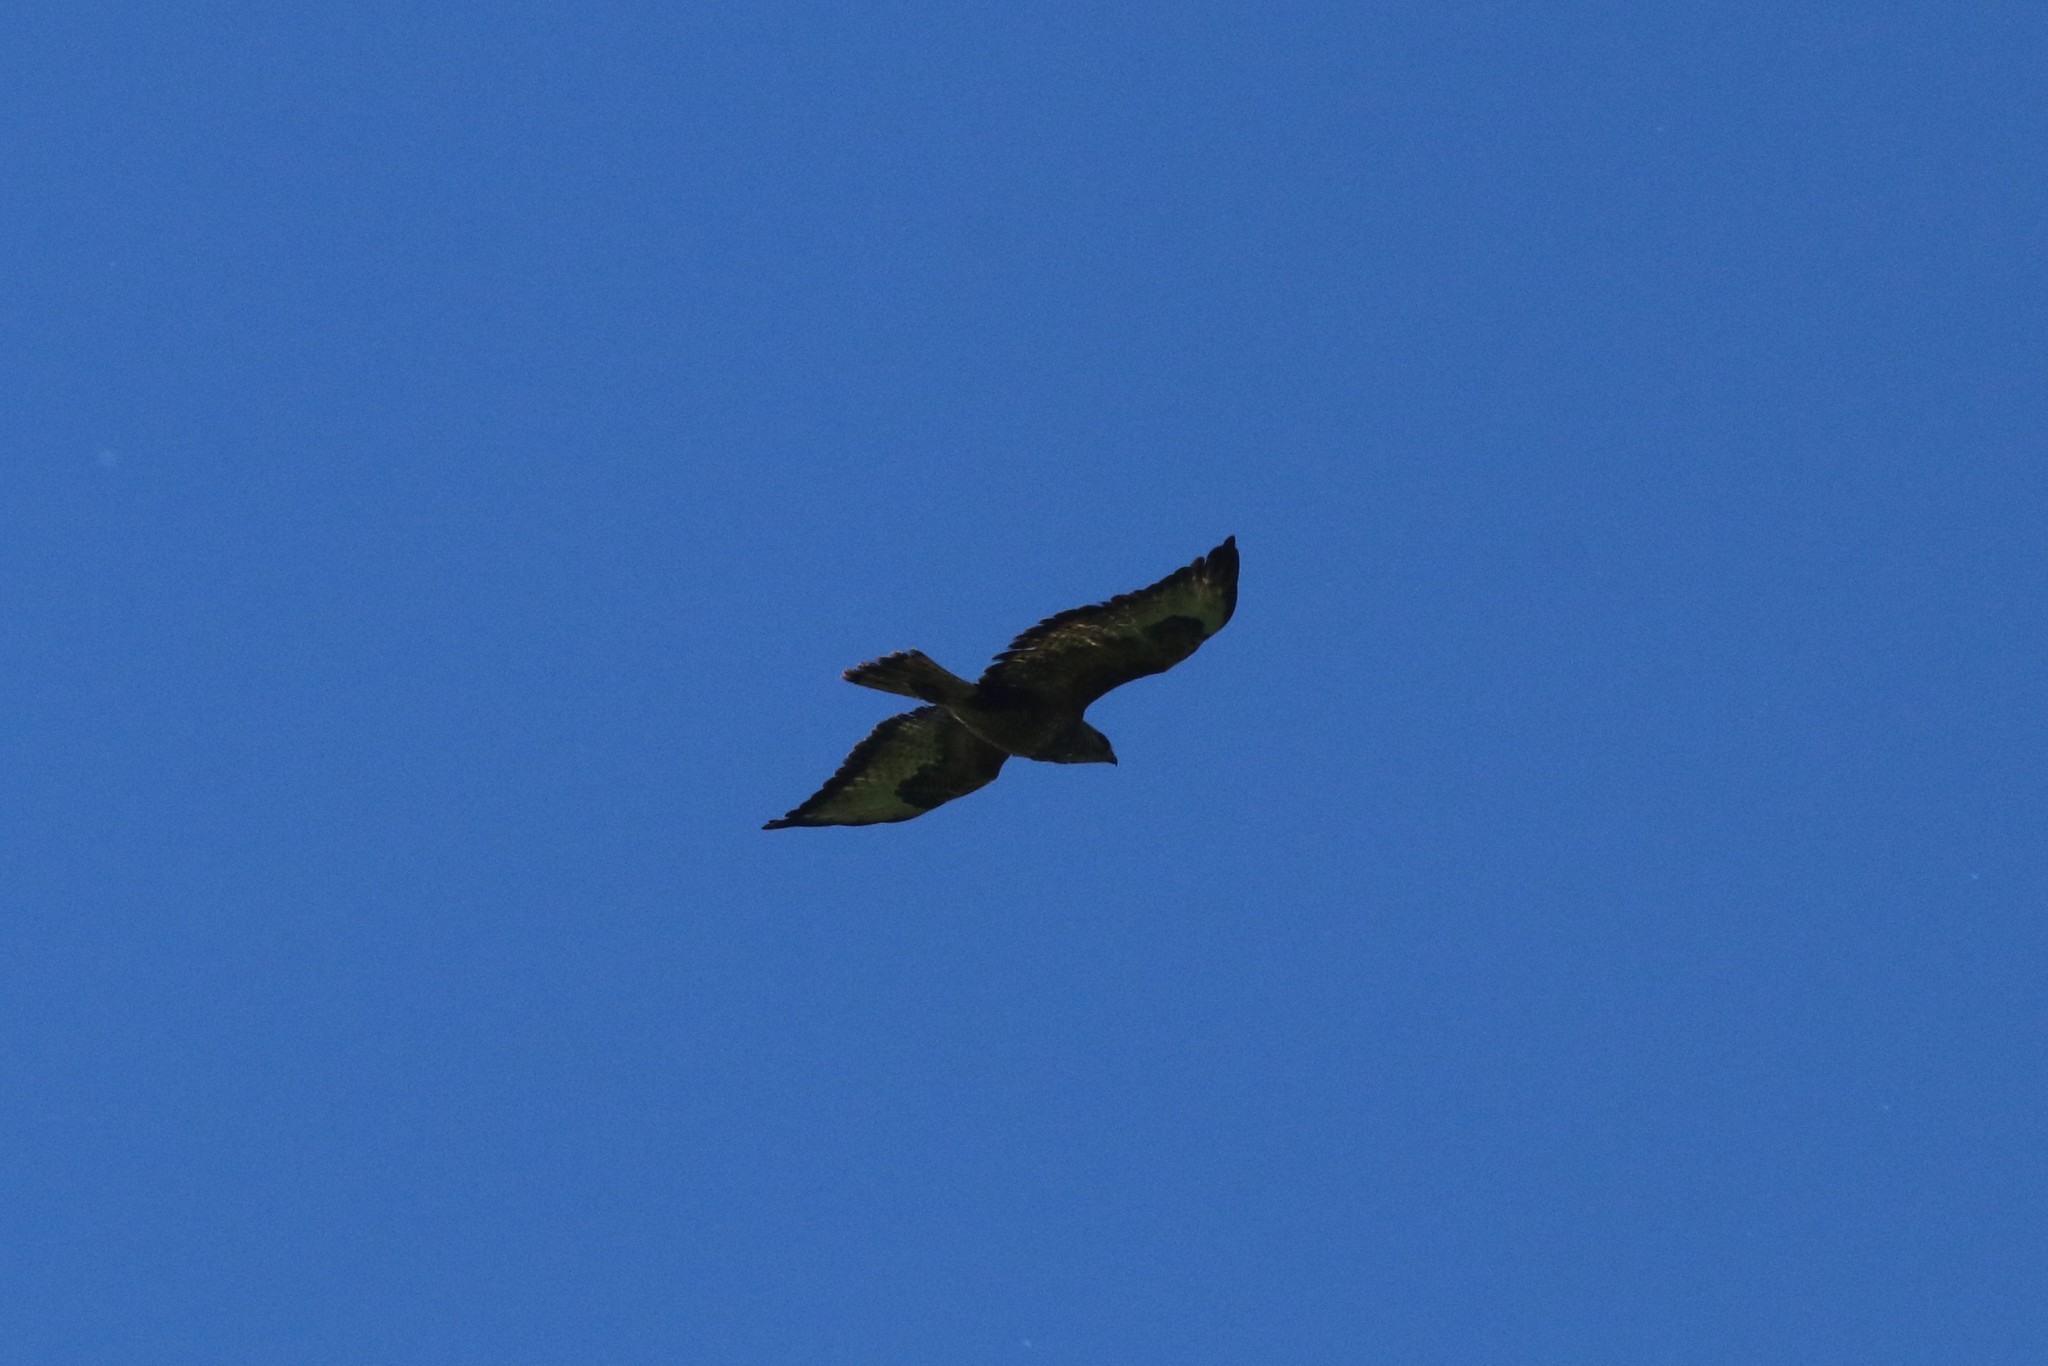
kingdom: Animalia
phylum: Chordata
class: Aves
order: Accipitriformes
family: Accipitridae
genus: Buteo
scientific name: Buteo buteo
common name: Common buzzard
